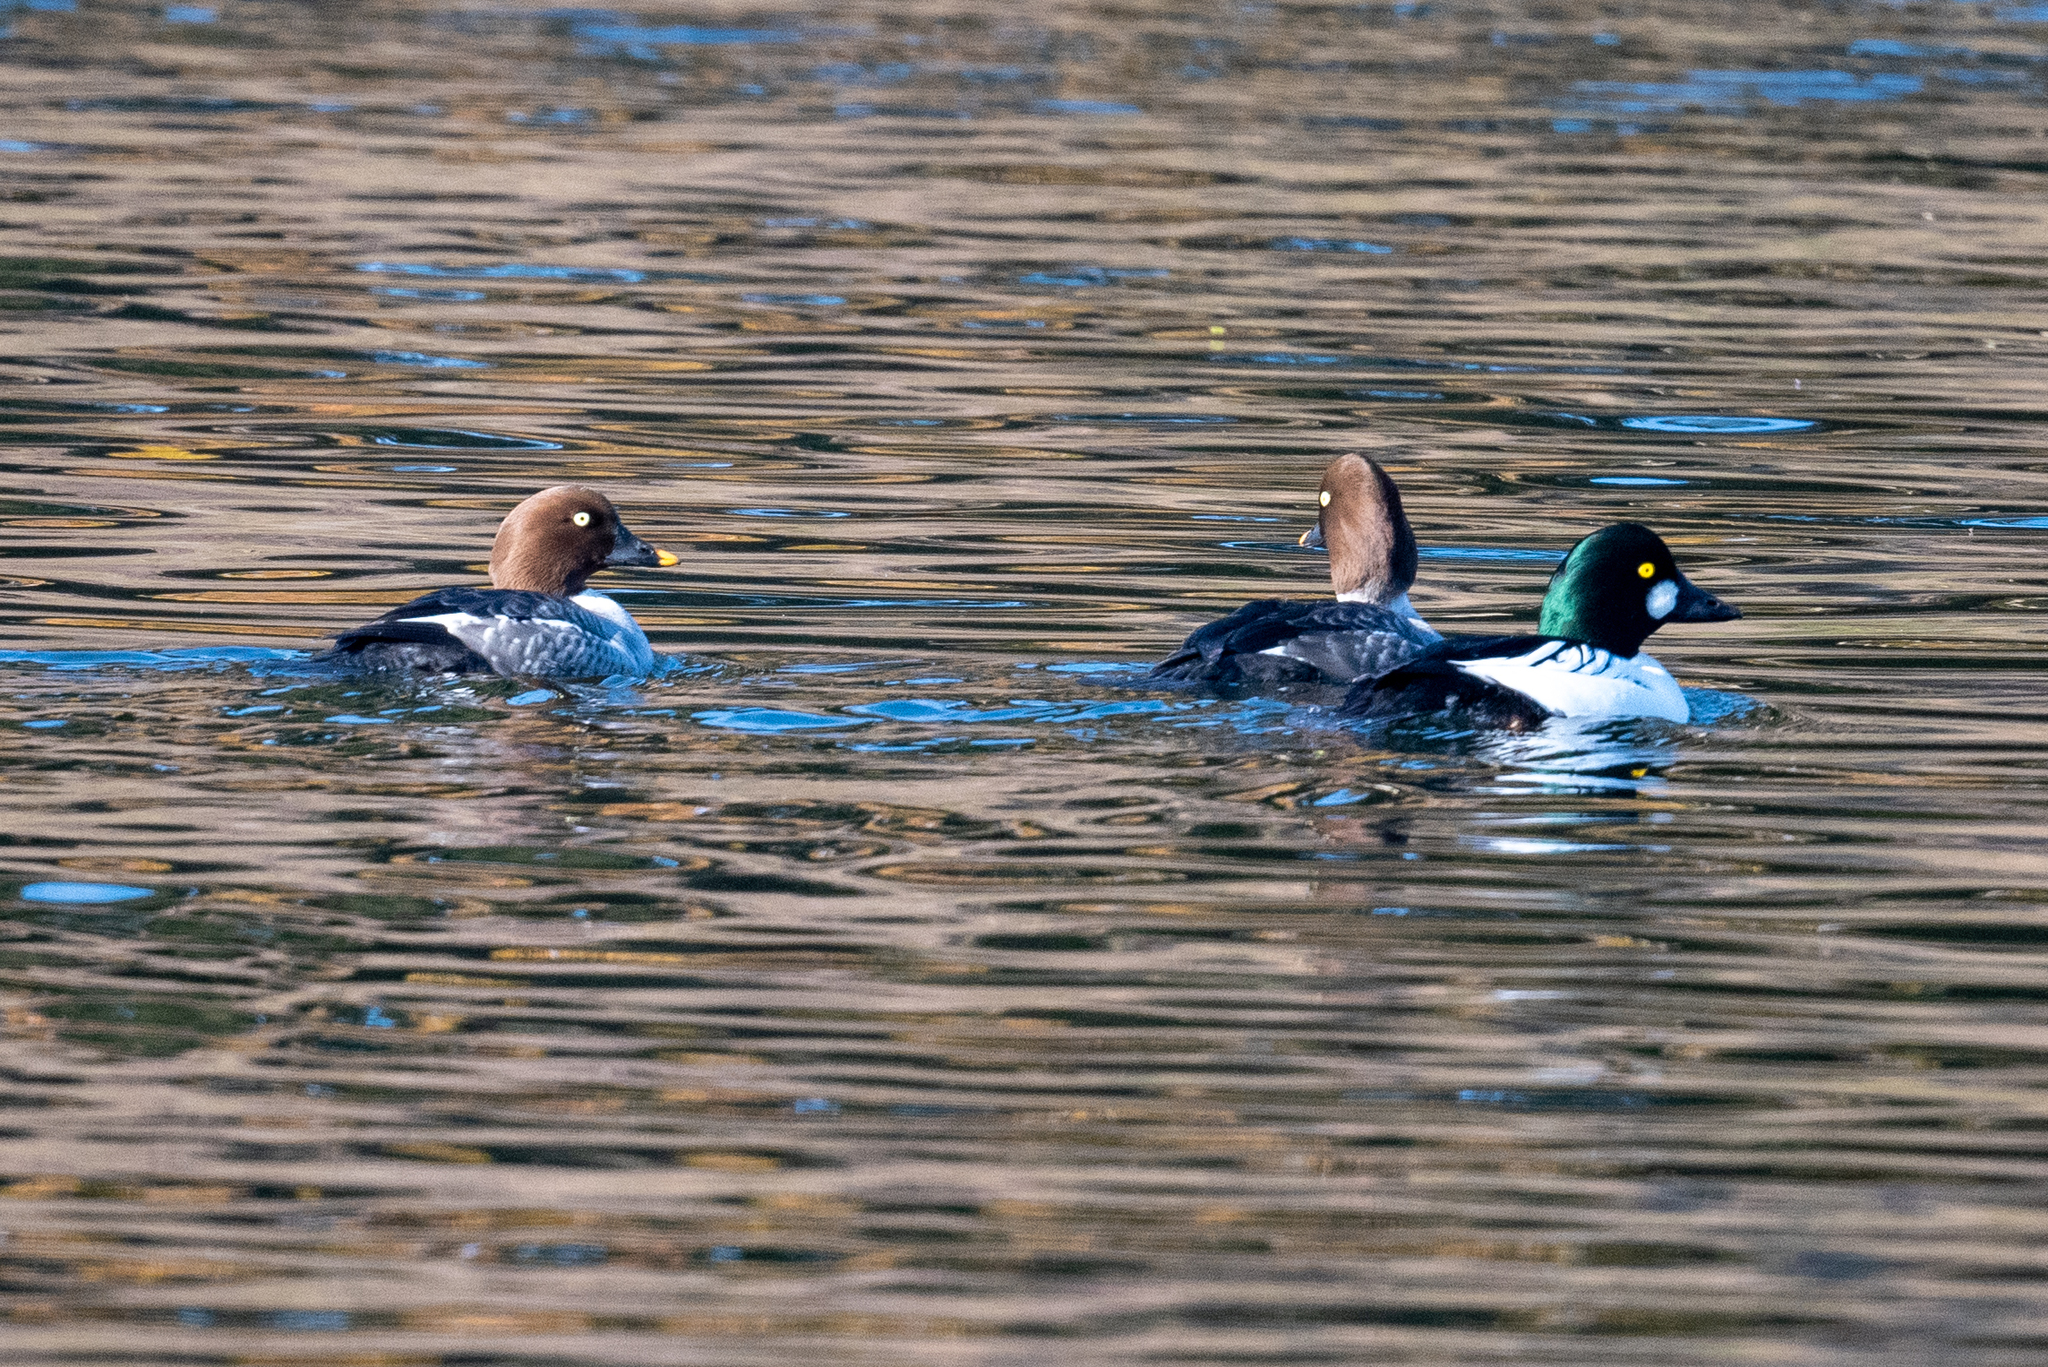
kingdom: Animalia
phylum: Chordata
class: Aves
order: Anseriformes
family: Anatidae
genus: Bucephala
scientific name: Bucephala clangula
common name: Common goldeneye
